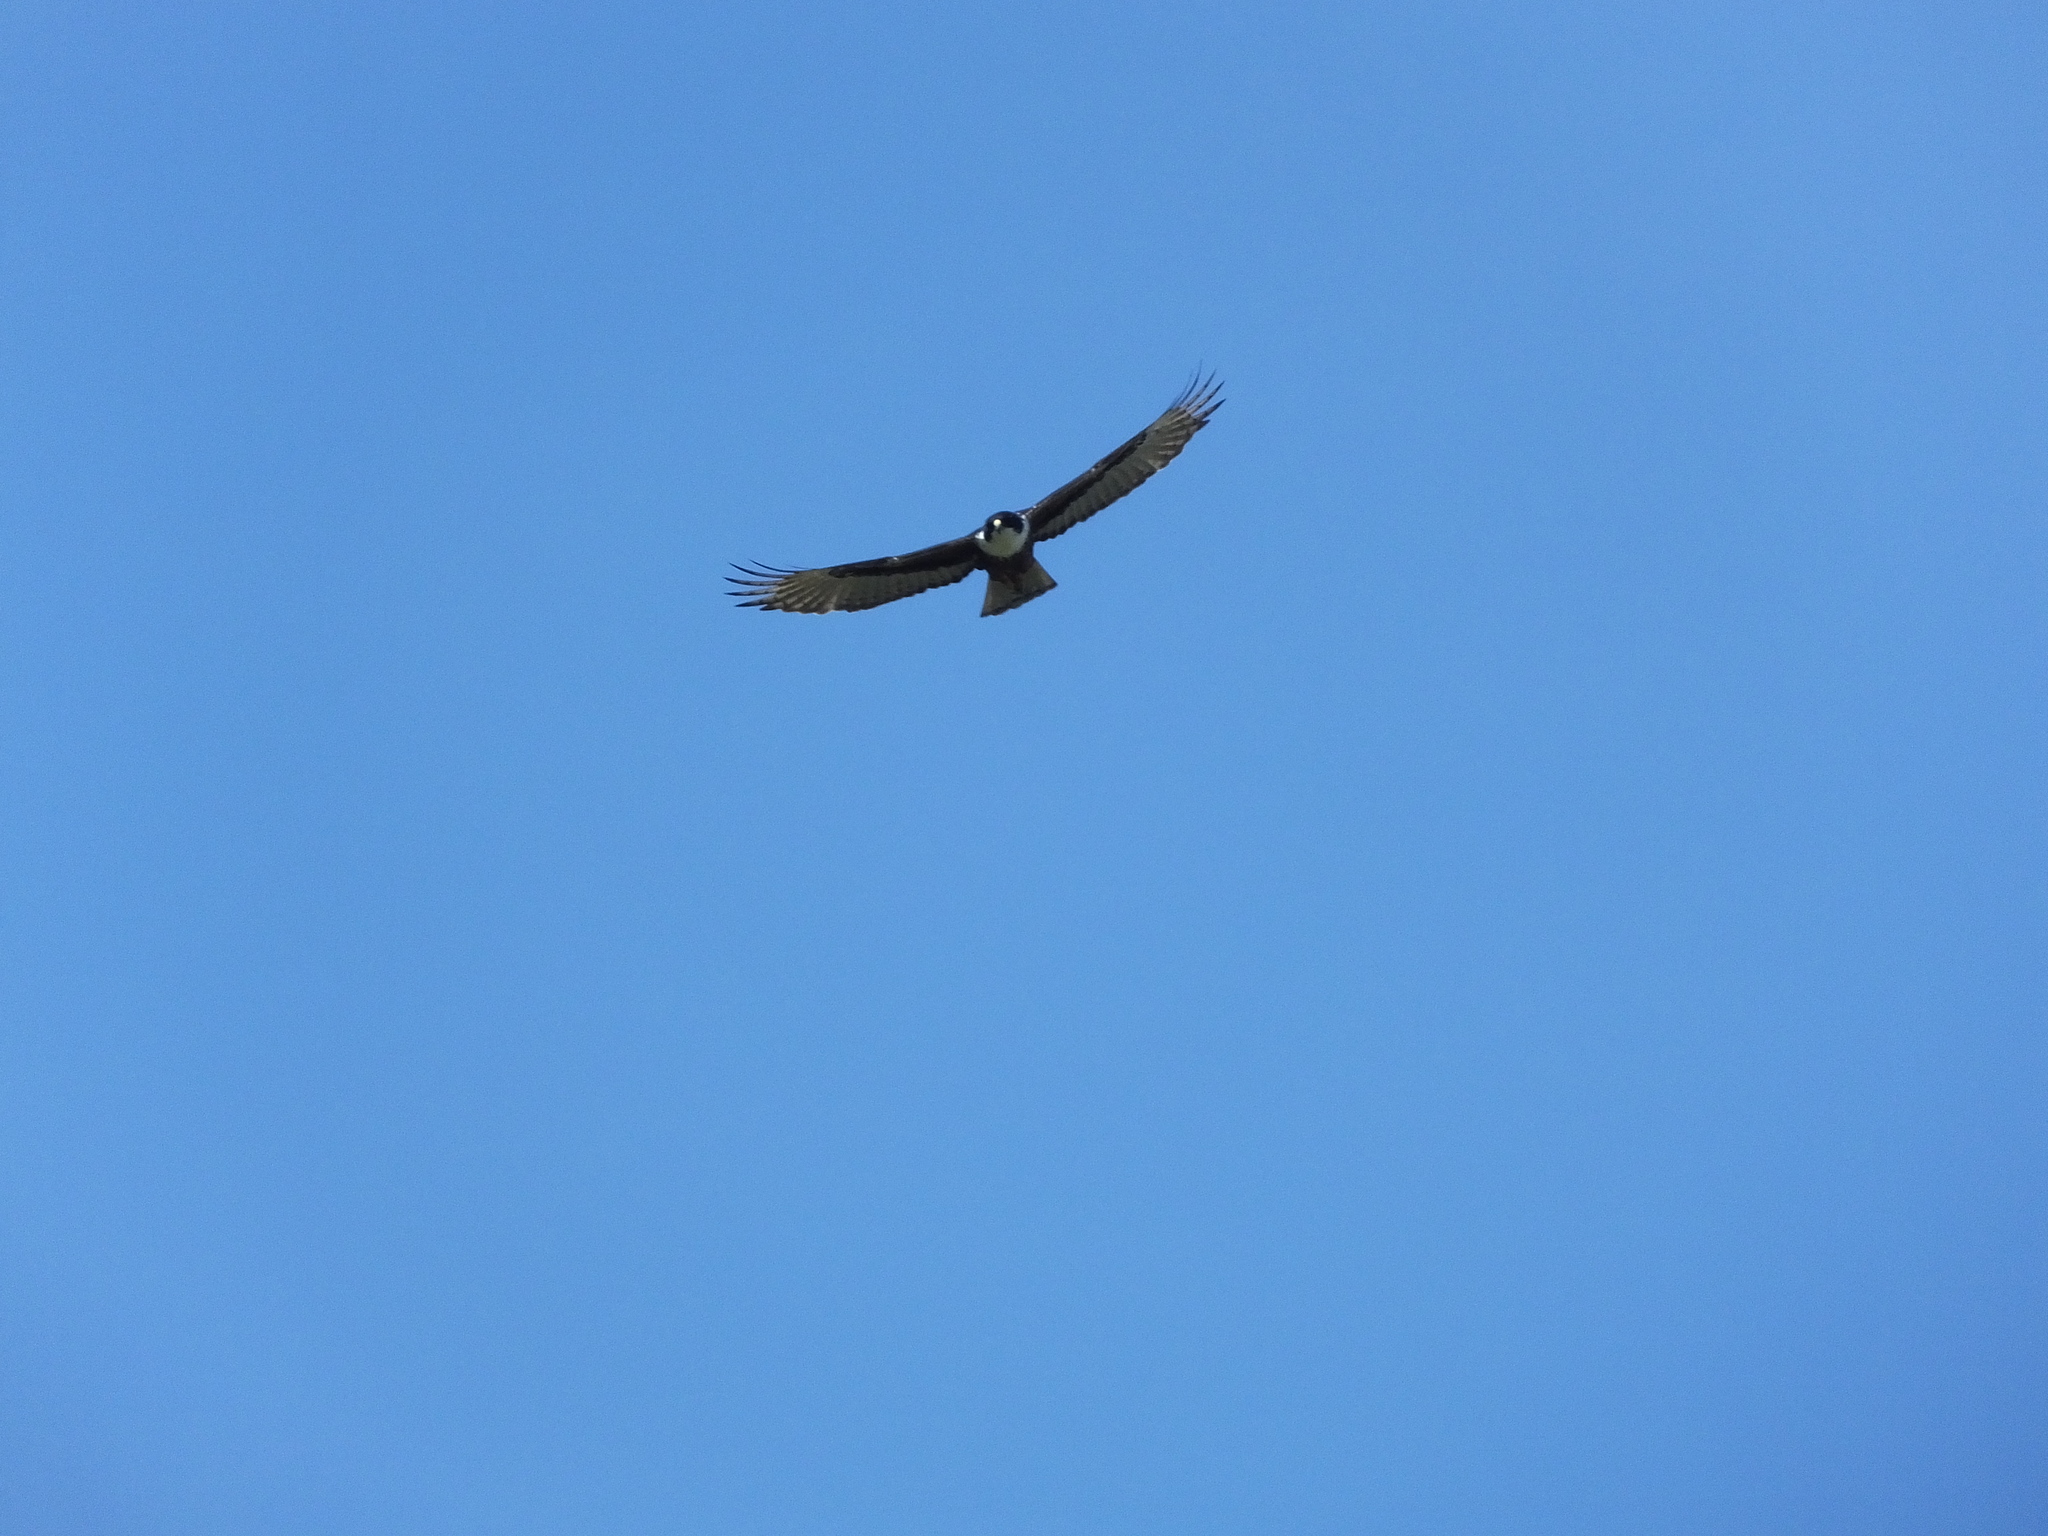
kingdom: Animalia
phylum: Chordata
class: Aves
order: Accipitriformes
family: Accipitridae
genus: Lophotriorchis
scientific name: Lophotriorchis kienerii
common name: Rufous-bellied eagle
